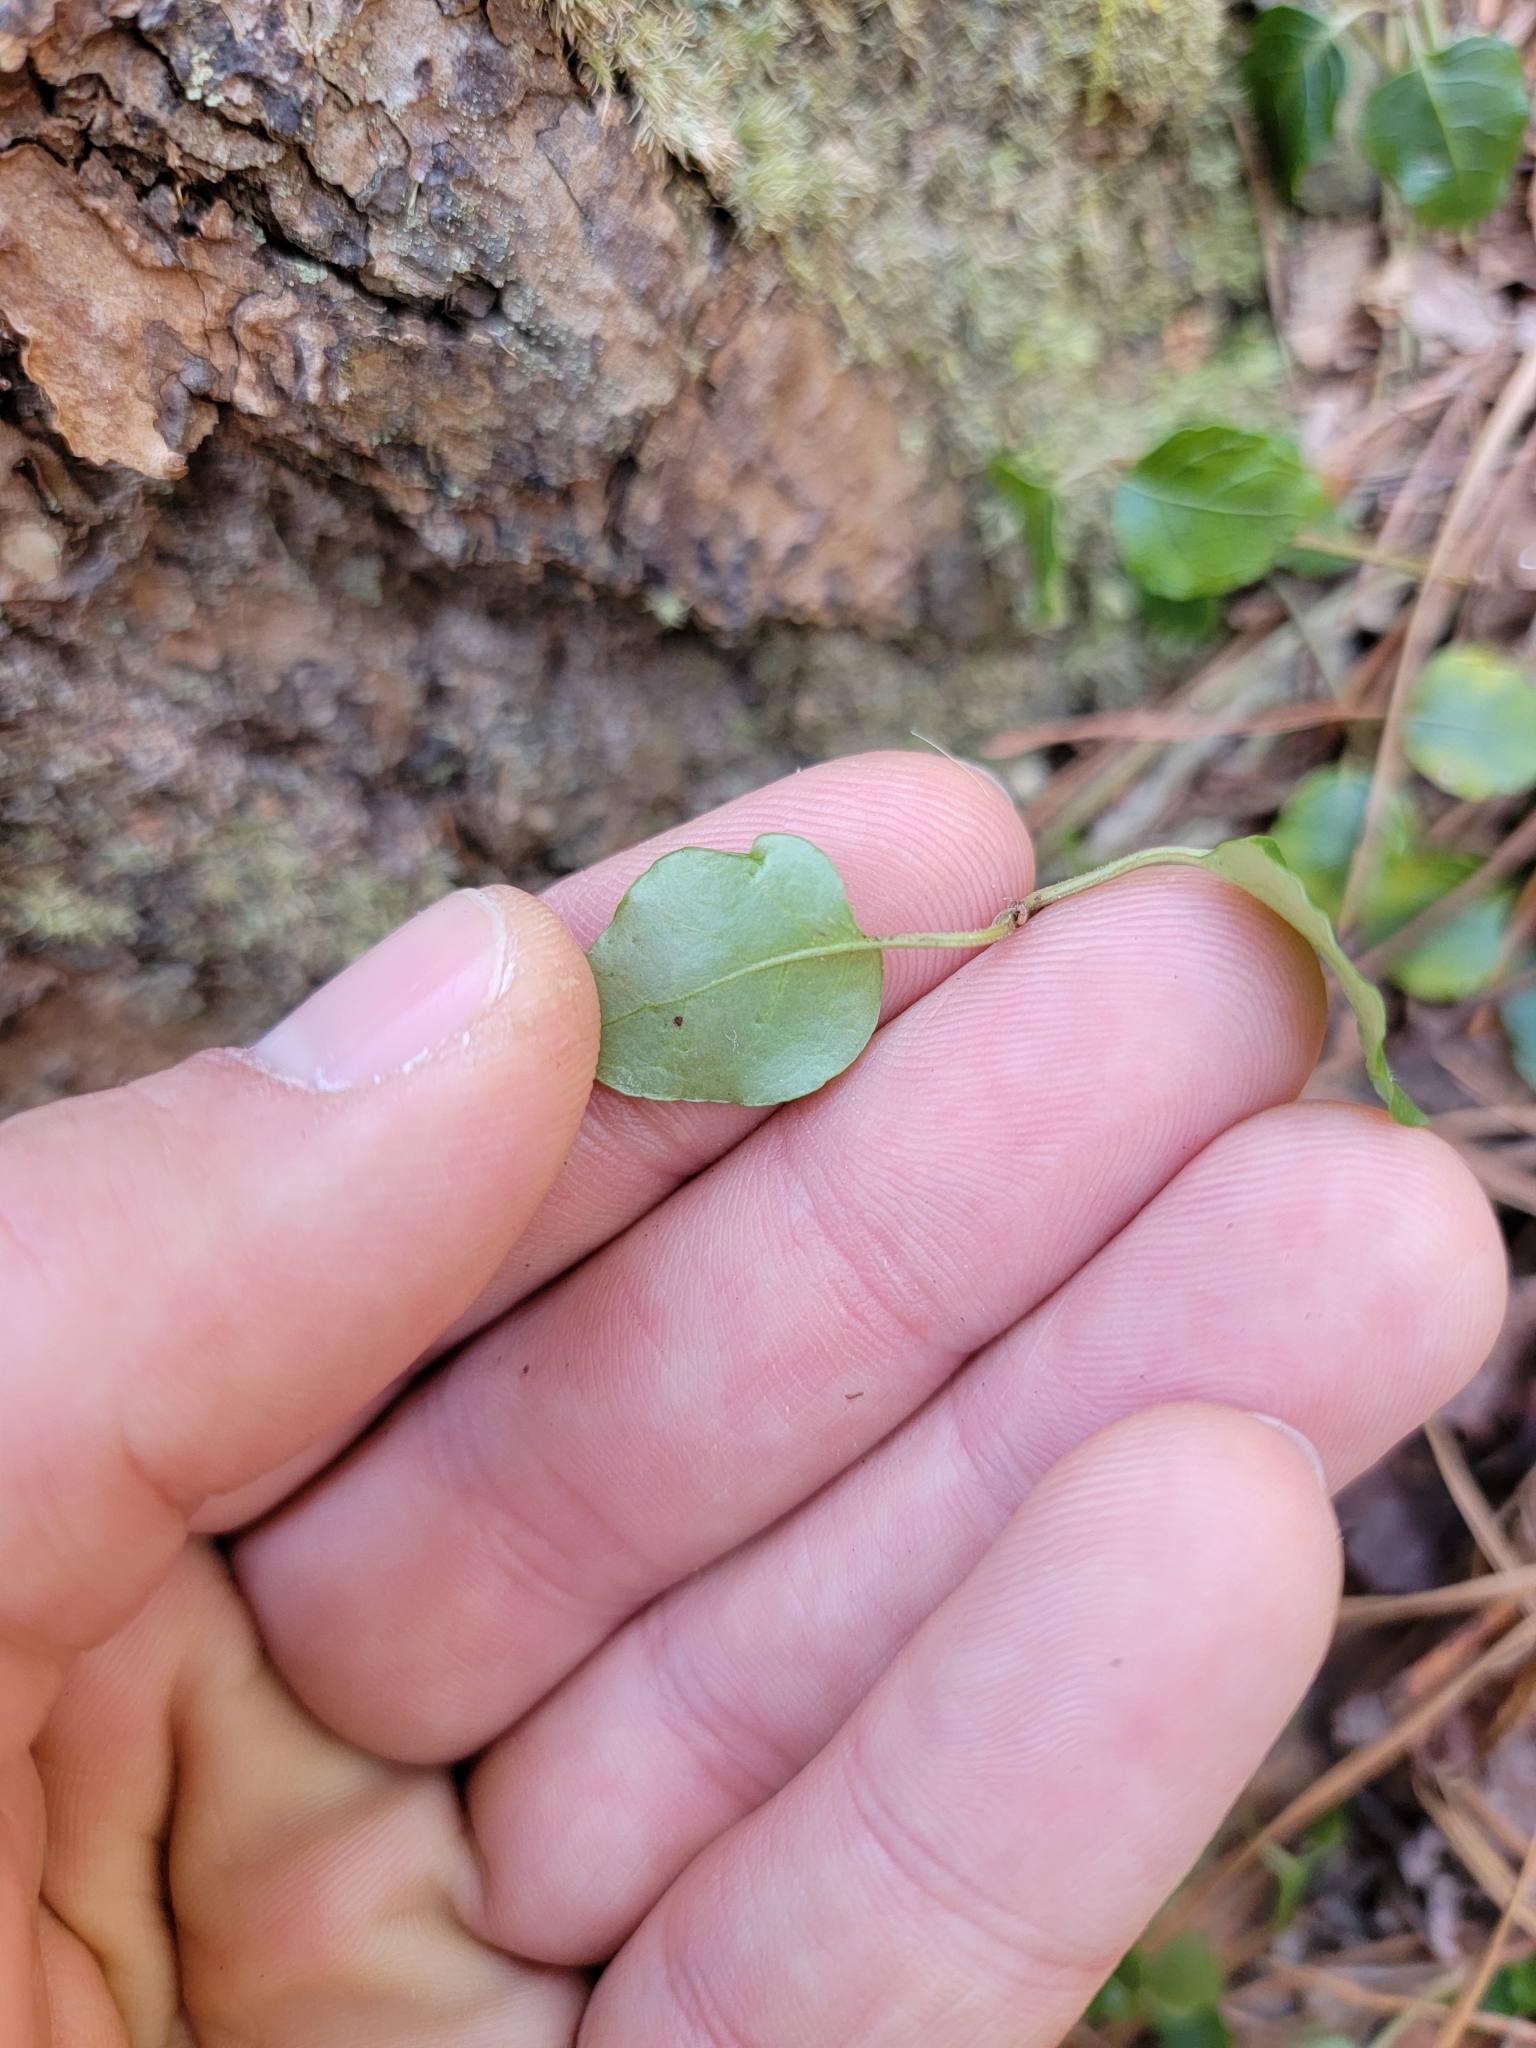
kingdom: Plantae
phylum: Tracheophyta
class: Magnoliopsida
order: Gentianales
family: Rubiaceae
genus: Mitchella
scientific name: Mitchella repens
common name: Partridge-berry
